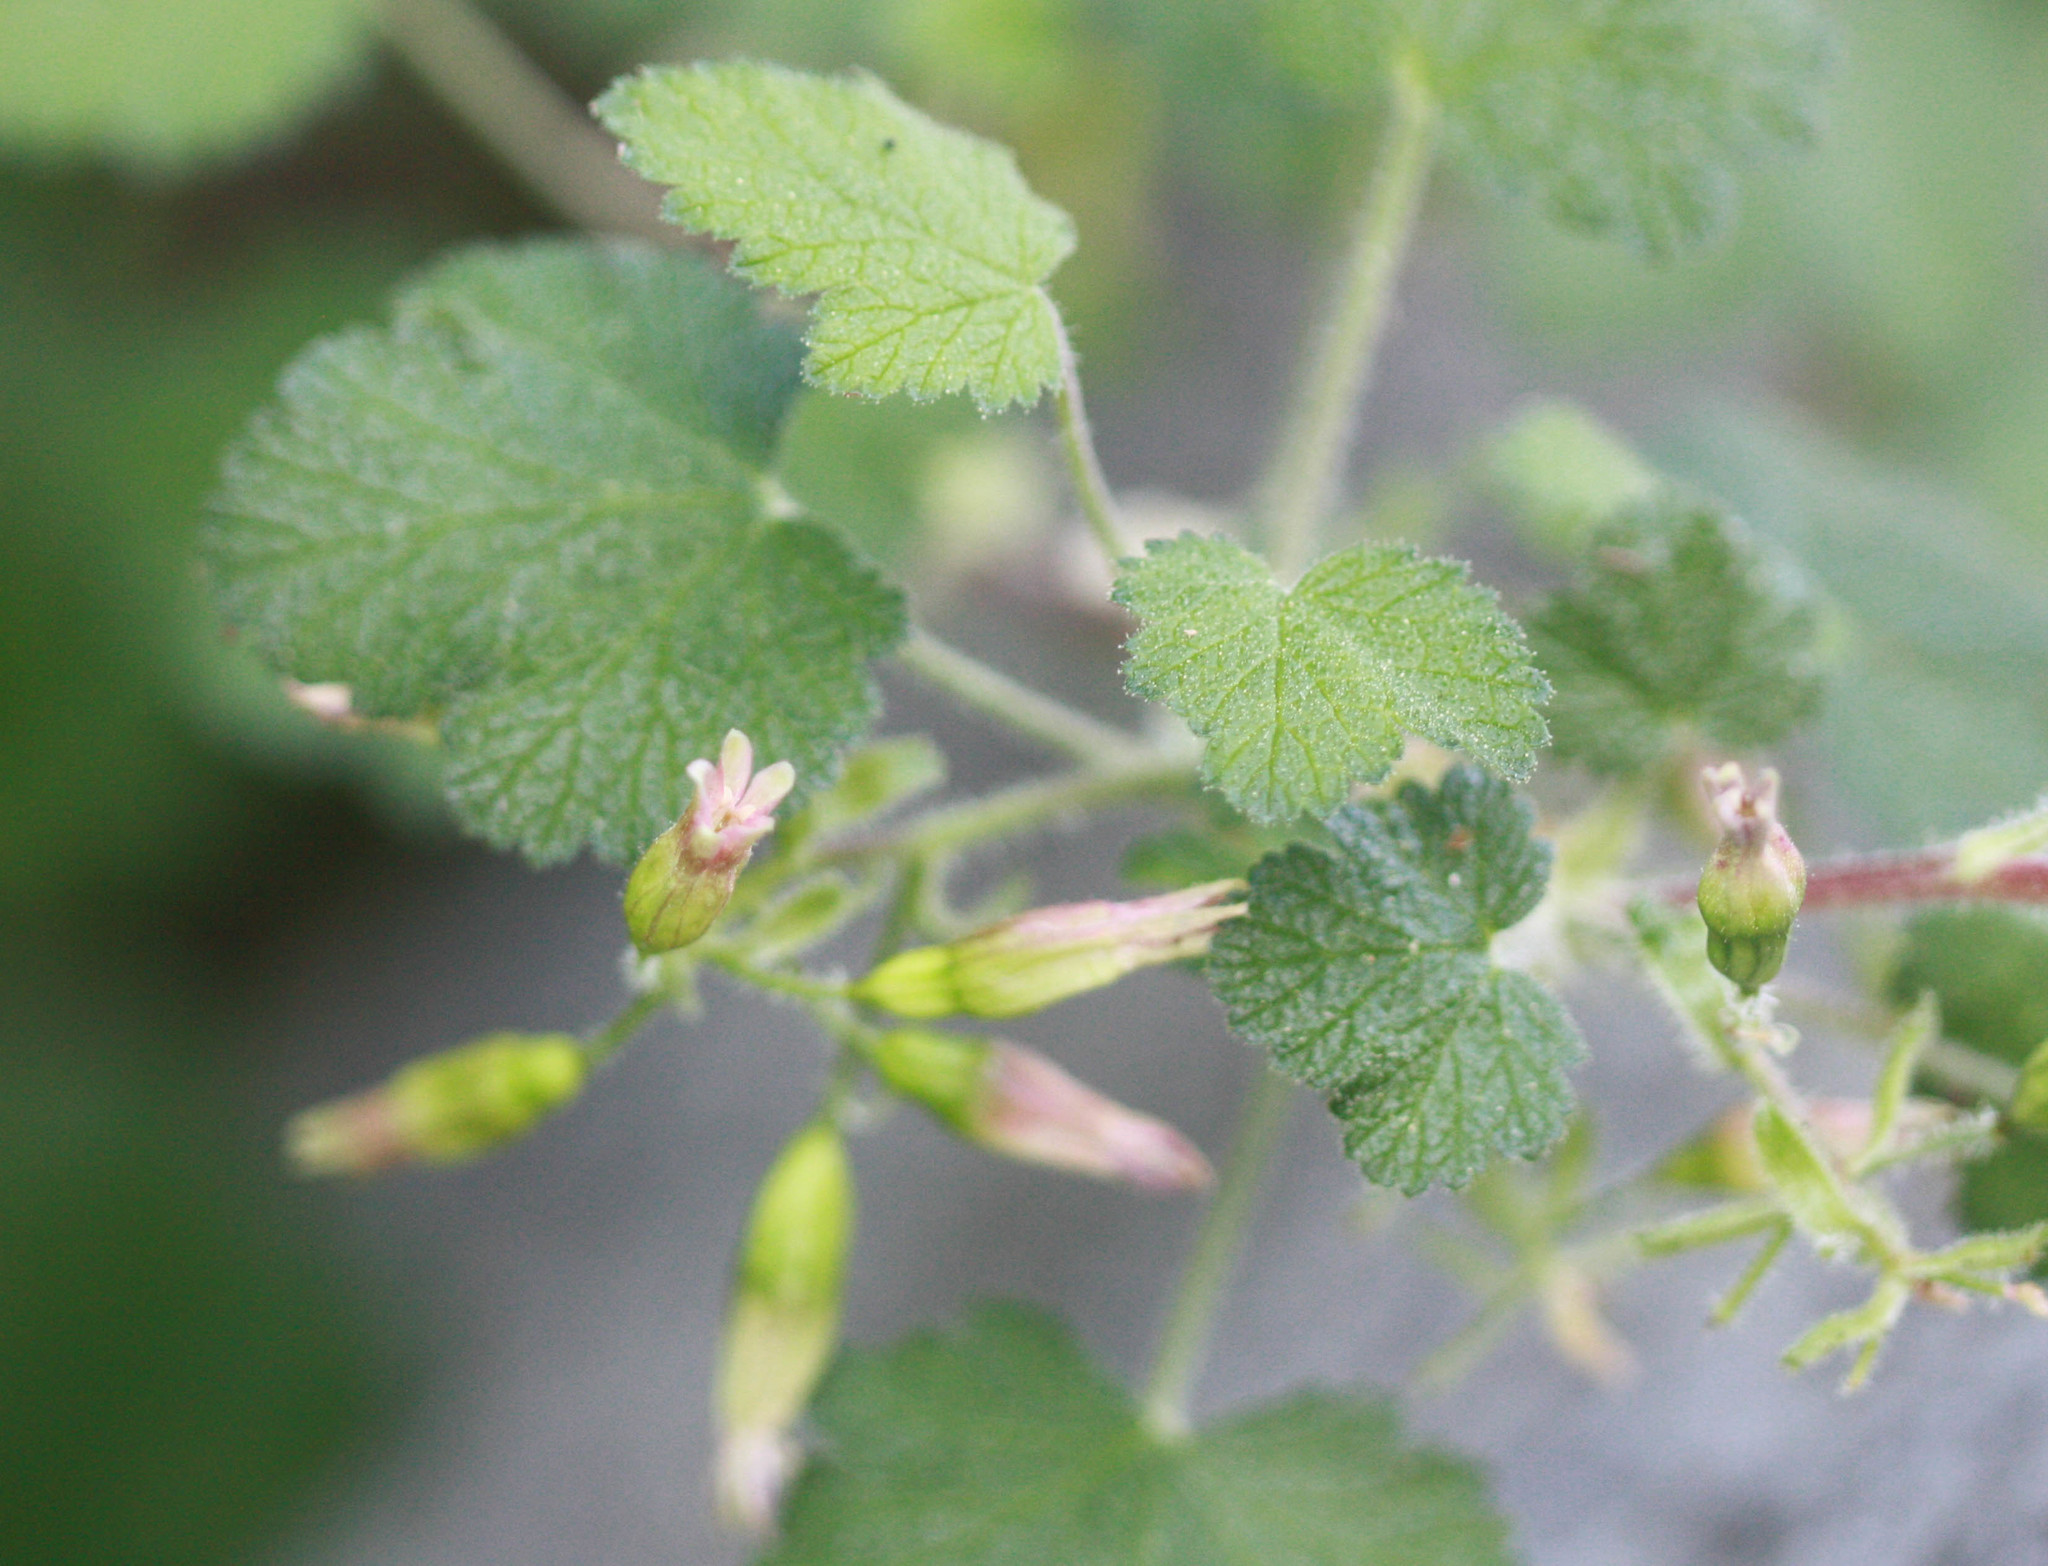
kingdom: Plantae
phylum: Tracheophyta
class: Magnoliopsida
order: Saxifragales
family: Grossulariaceae
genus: Ribes
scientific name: Ribes viscosissimum
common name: Sticky currant
